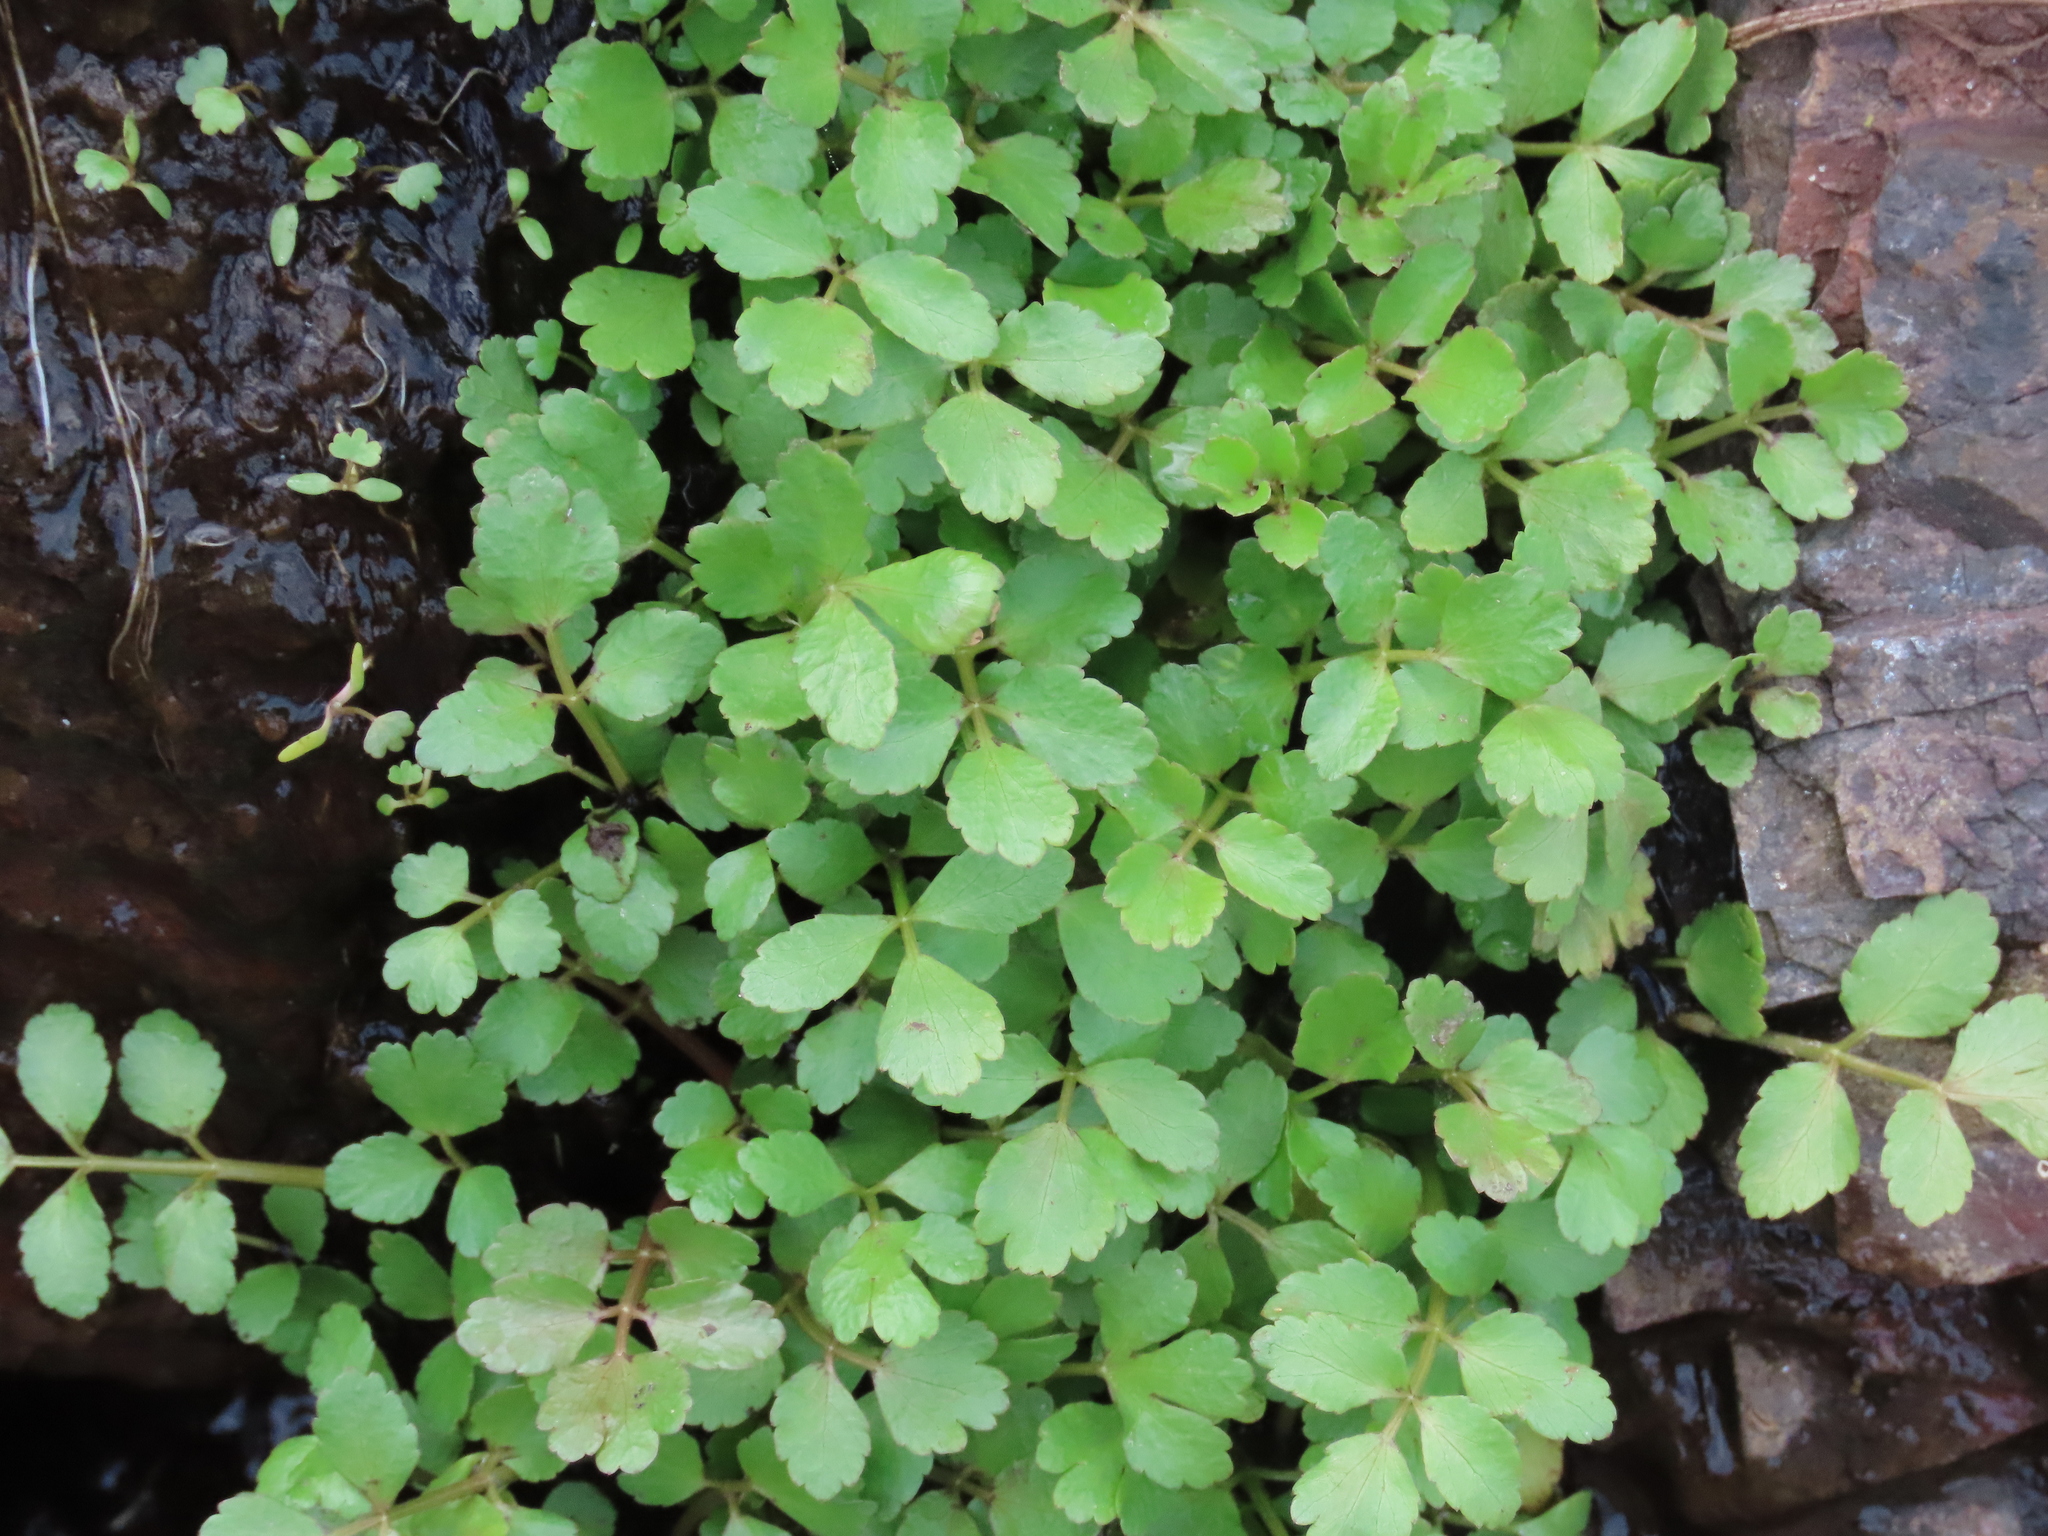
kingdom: Plantae
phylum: Tracheophyta
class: Magnoliopsida
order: Apiales
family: Apiaceae
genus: Apium
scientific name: Apium prostratum
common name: Prostrate marshwort
